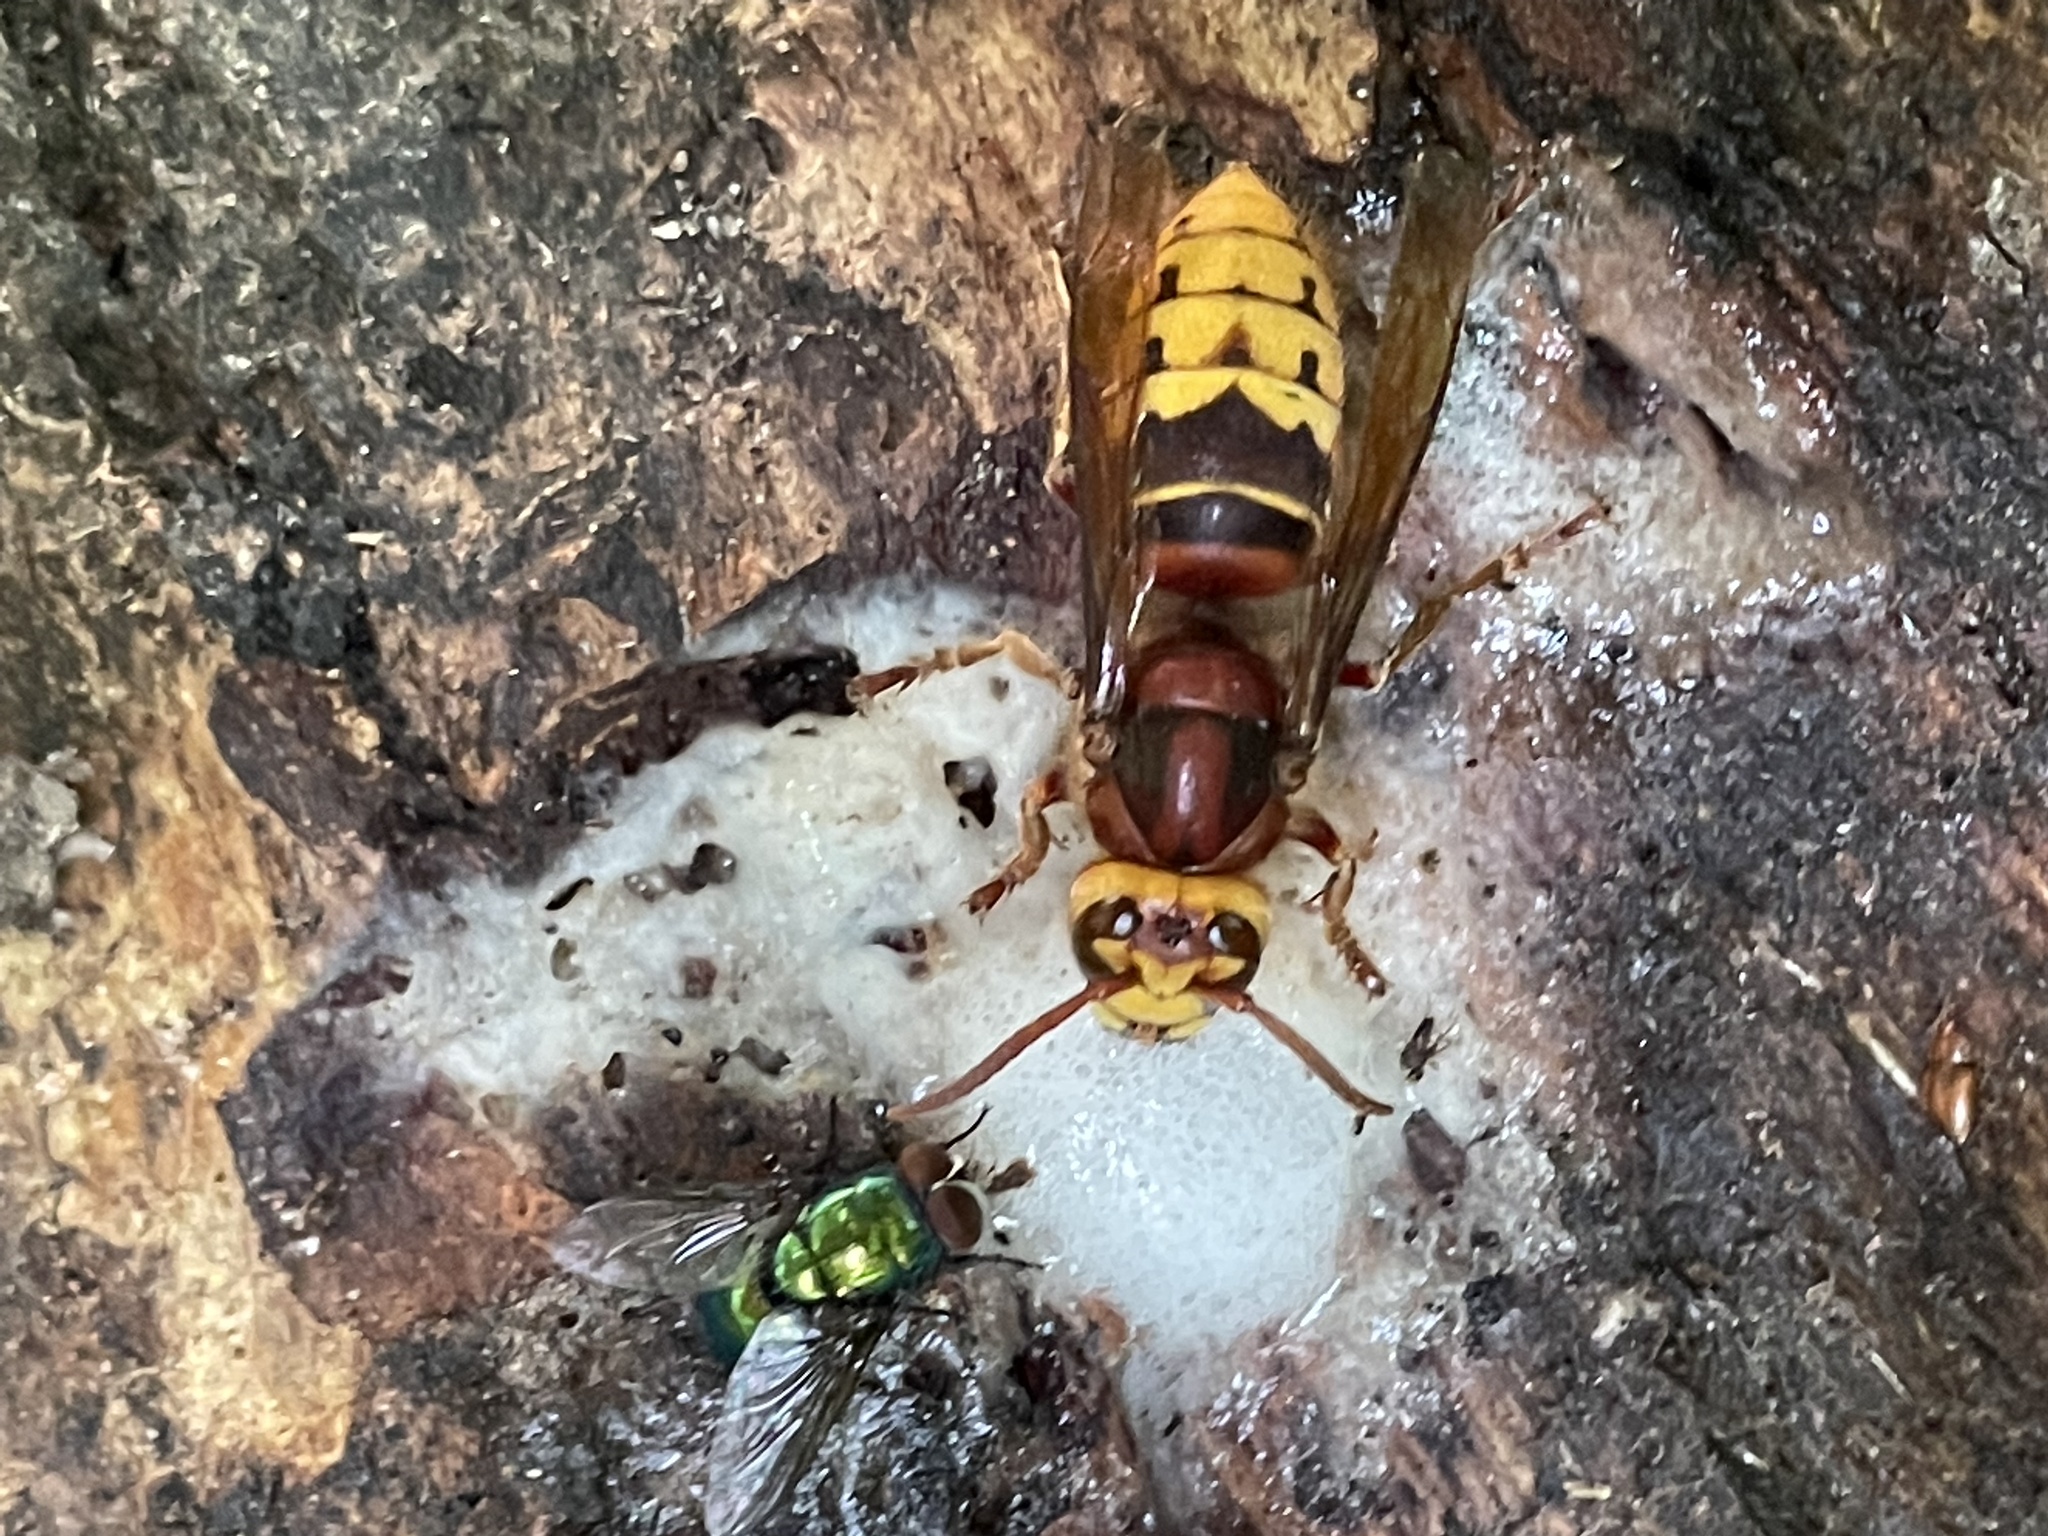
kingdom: Animalia
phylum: Arthropoda
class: Insecta
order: Hymenoptera
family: Vespidae
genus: Vespa
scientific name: Vespa crabro
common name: Hornet
